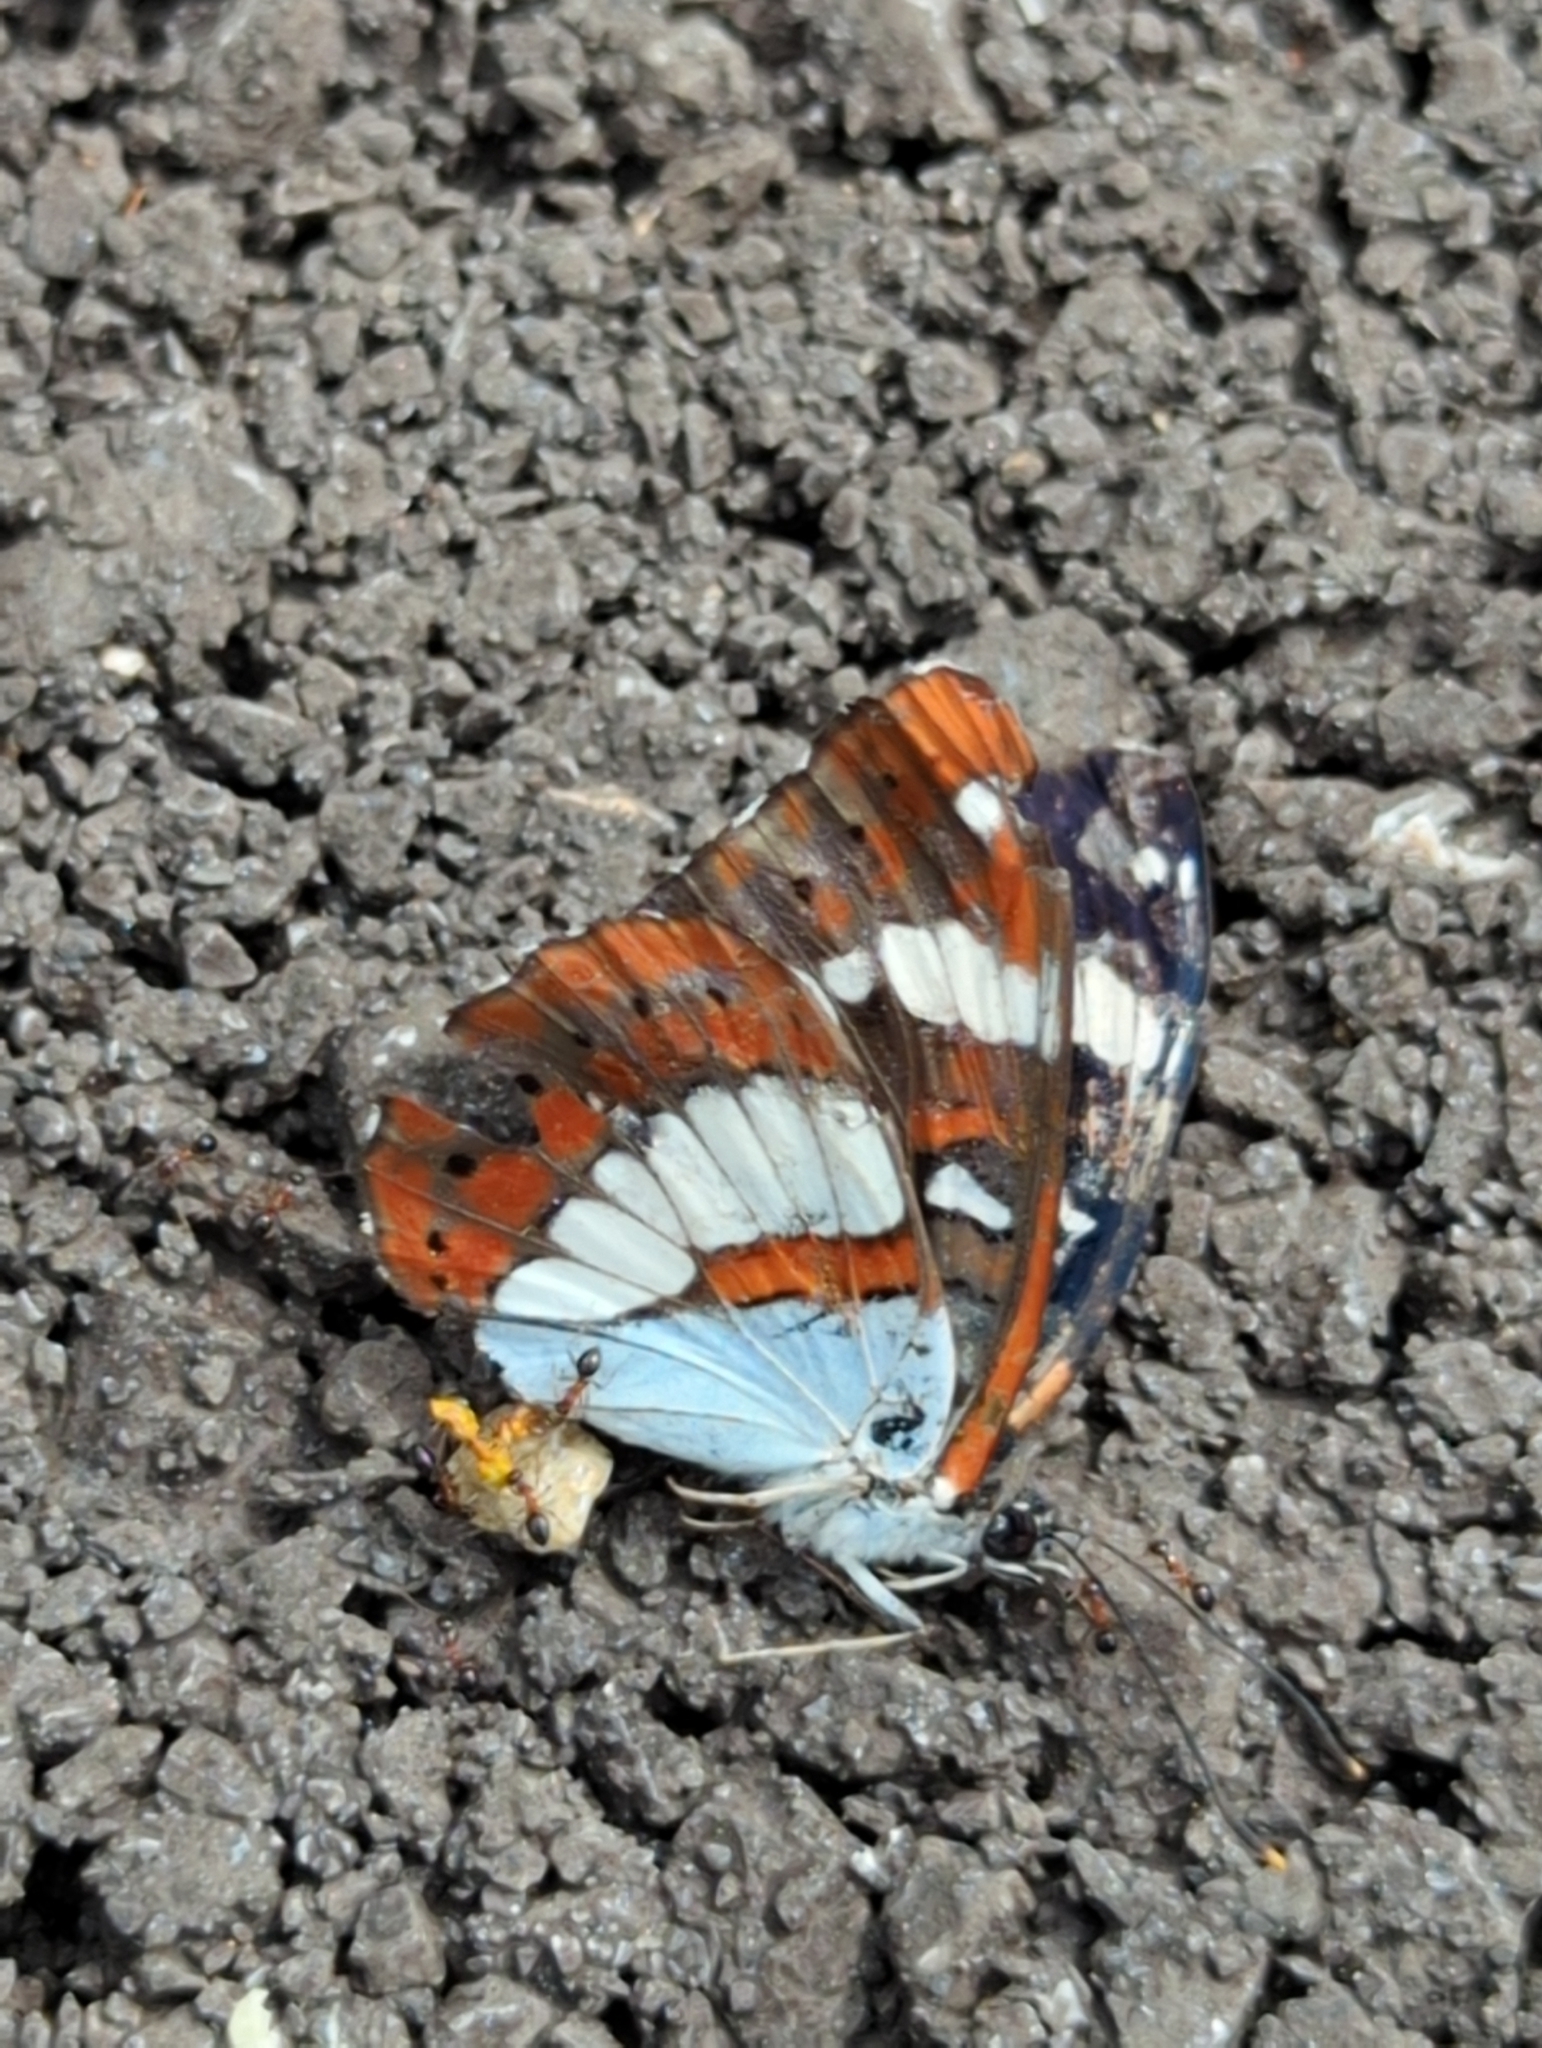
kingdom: Animalia
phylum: Arthropoda
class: Insecta
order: Lepidoptera
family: Nymphalidae
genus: Limenitis
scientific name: Limenitis reducta
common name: Southern white admiral
